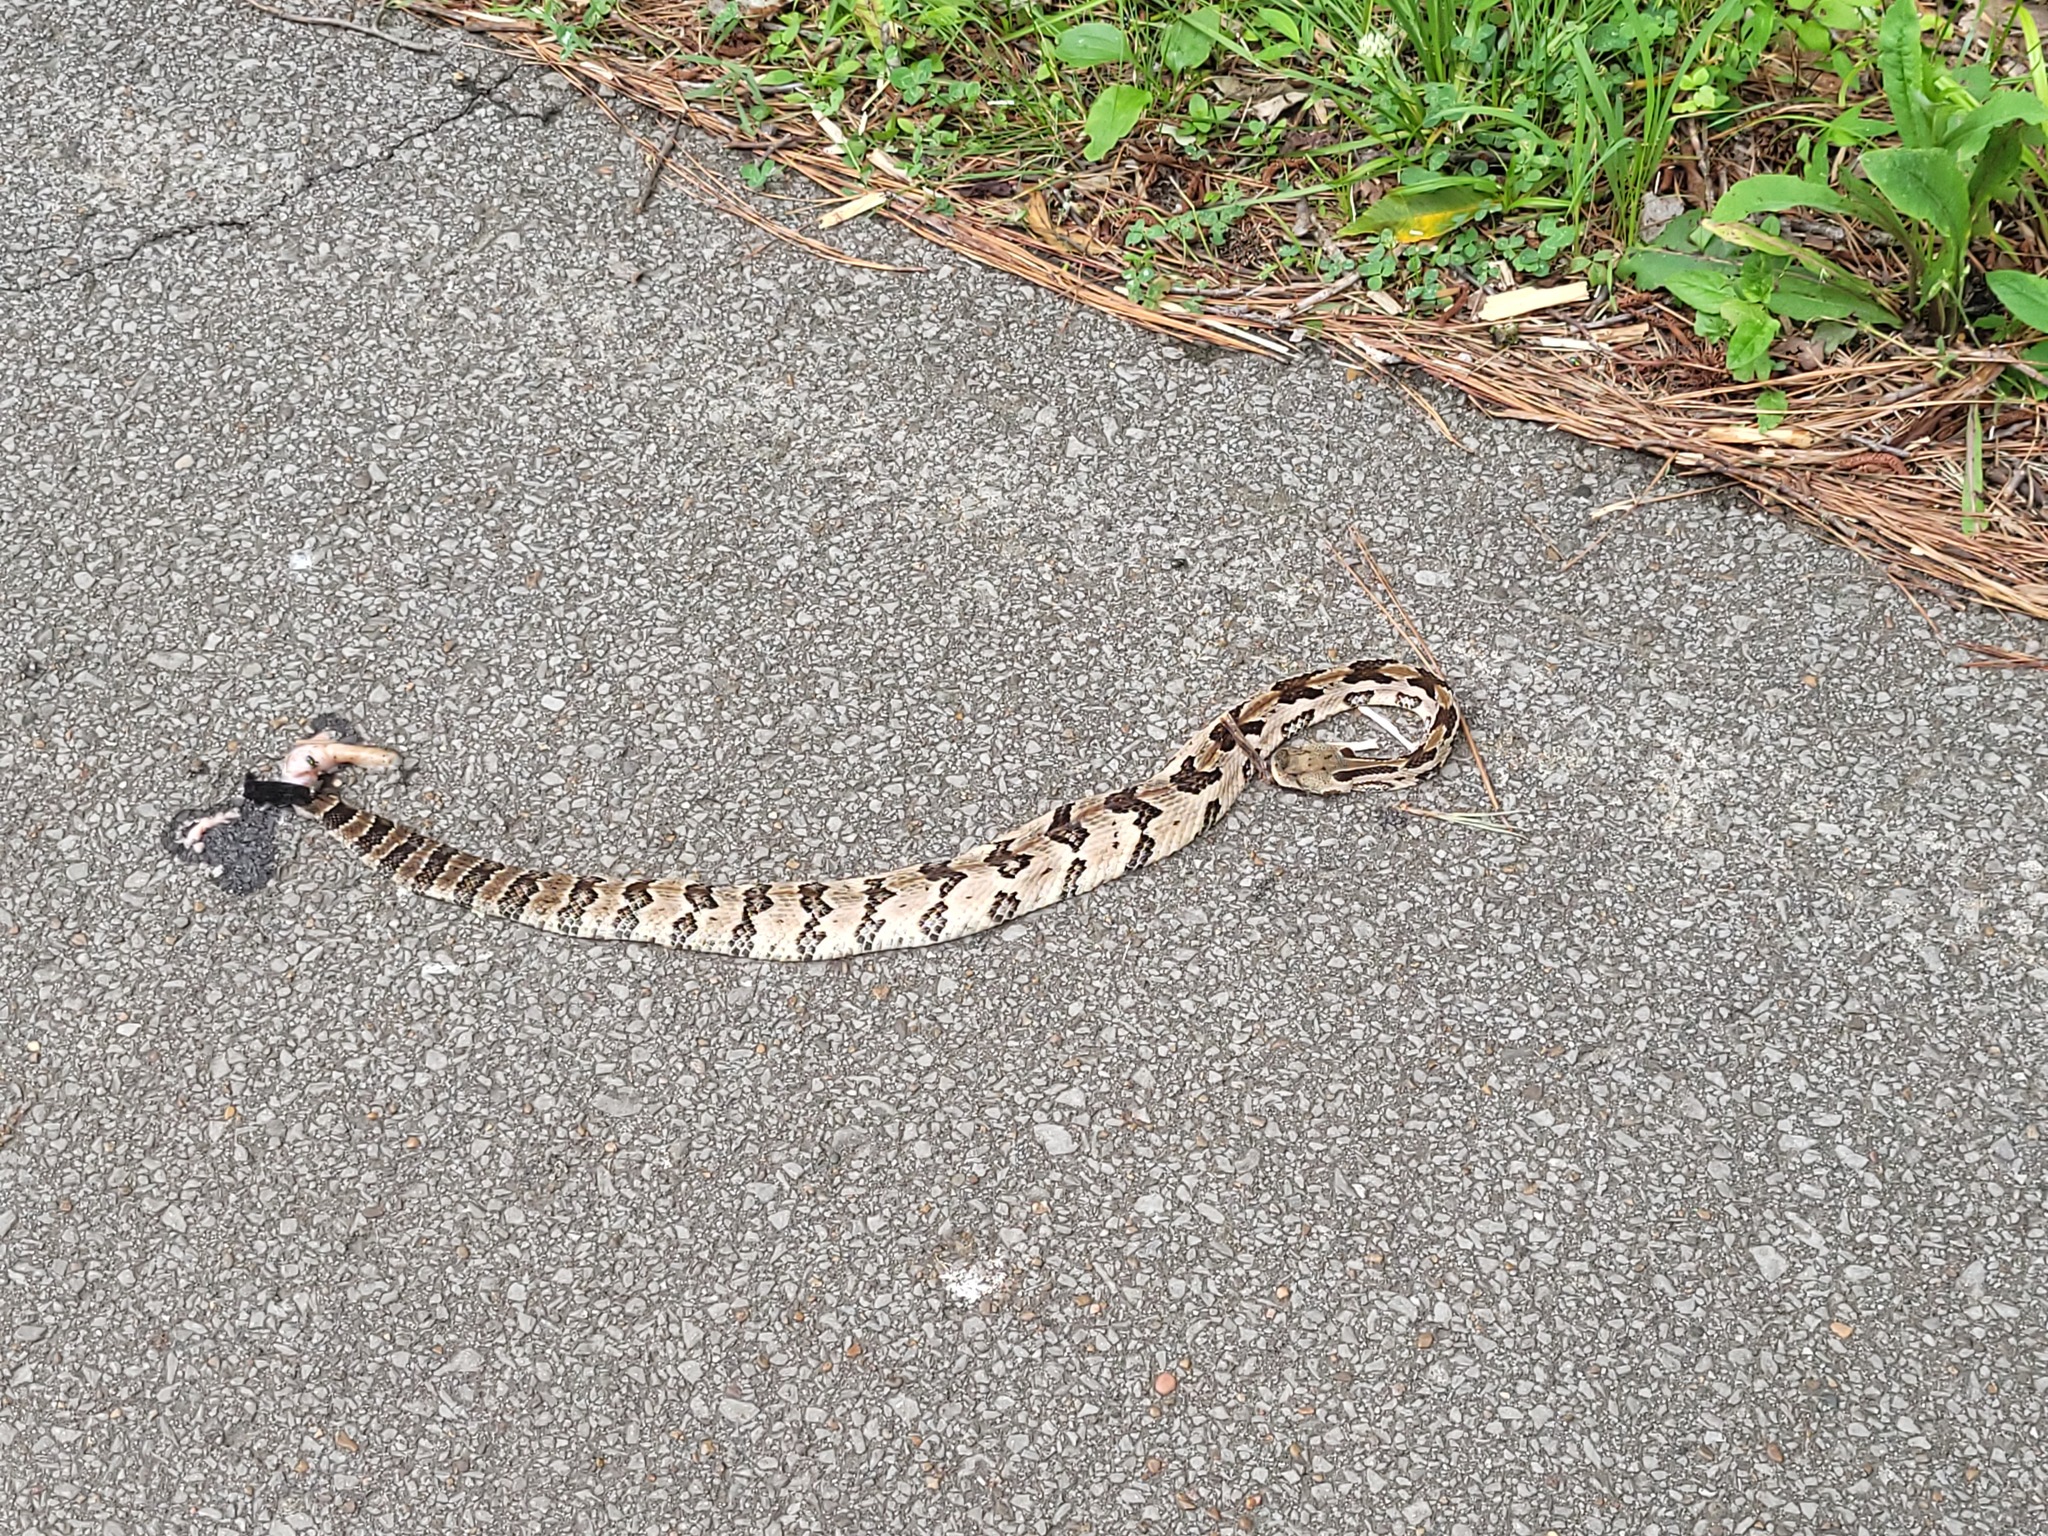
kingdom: Animalia
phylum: Chordata
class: Squamata
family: Viperidae
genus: Crotalus
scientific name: Crotalus horridus
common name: Timber rattlesnake
